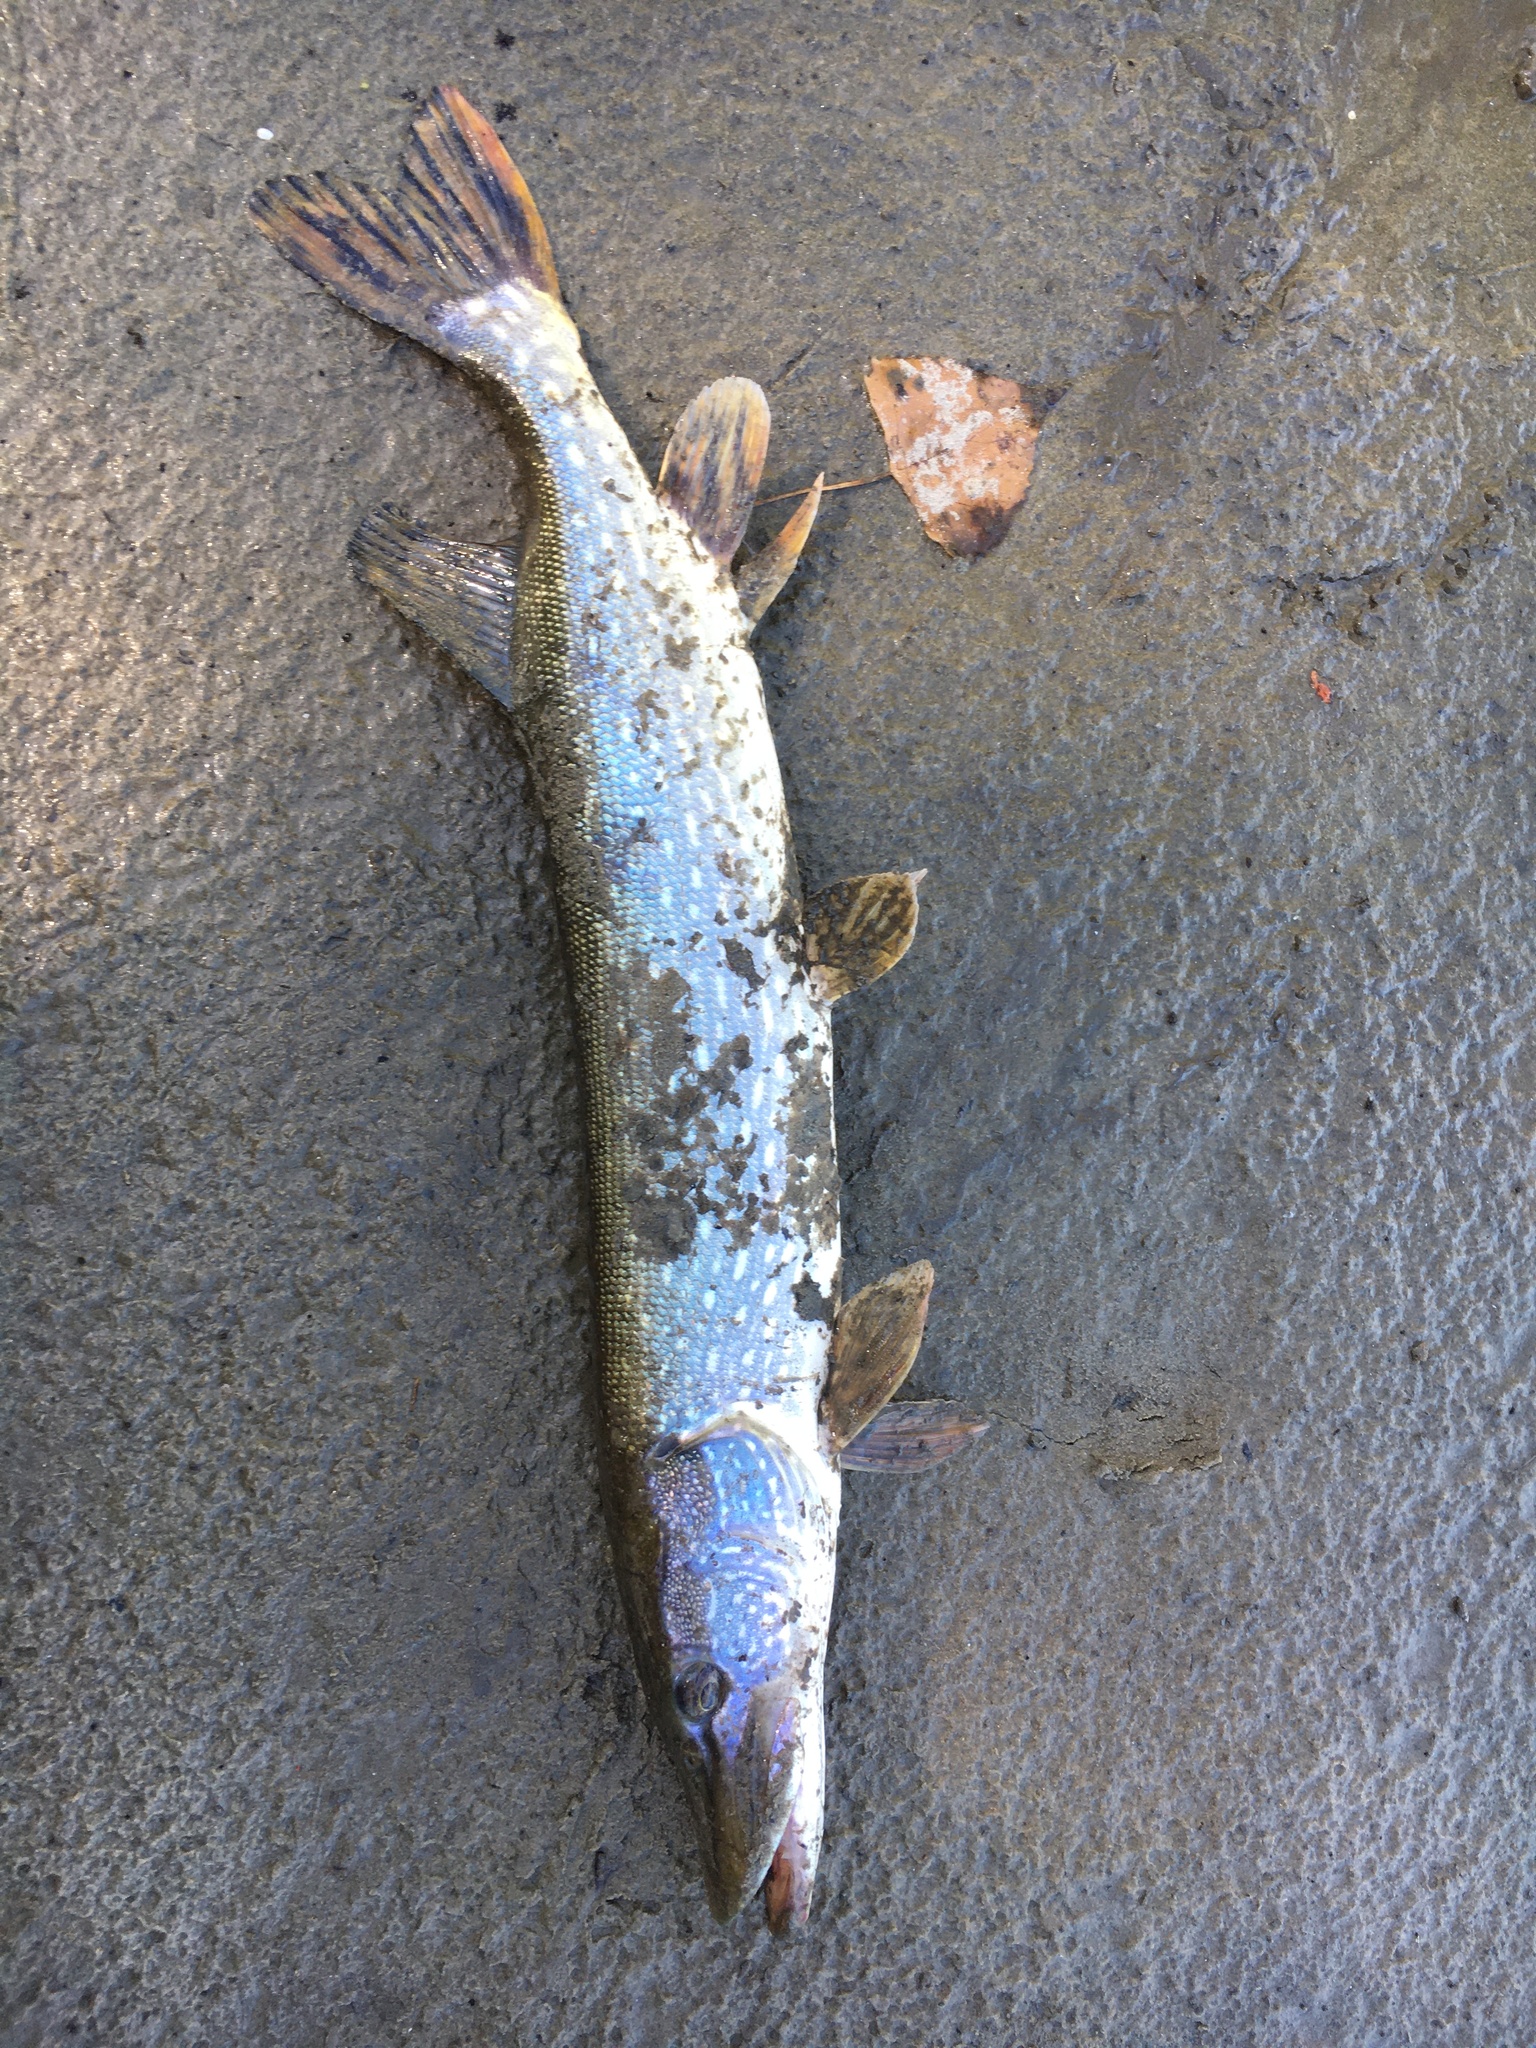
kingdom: Animalia
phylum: Chordata
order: Esociformes
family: Esocidae
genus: Esox
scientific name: Esox lucius
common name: Northern pike
